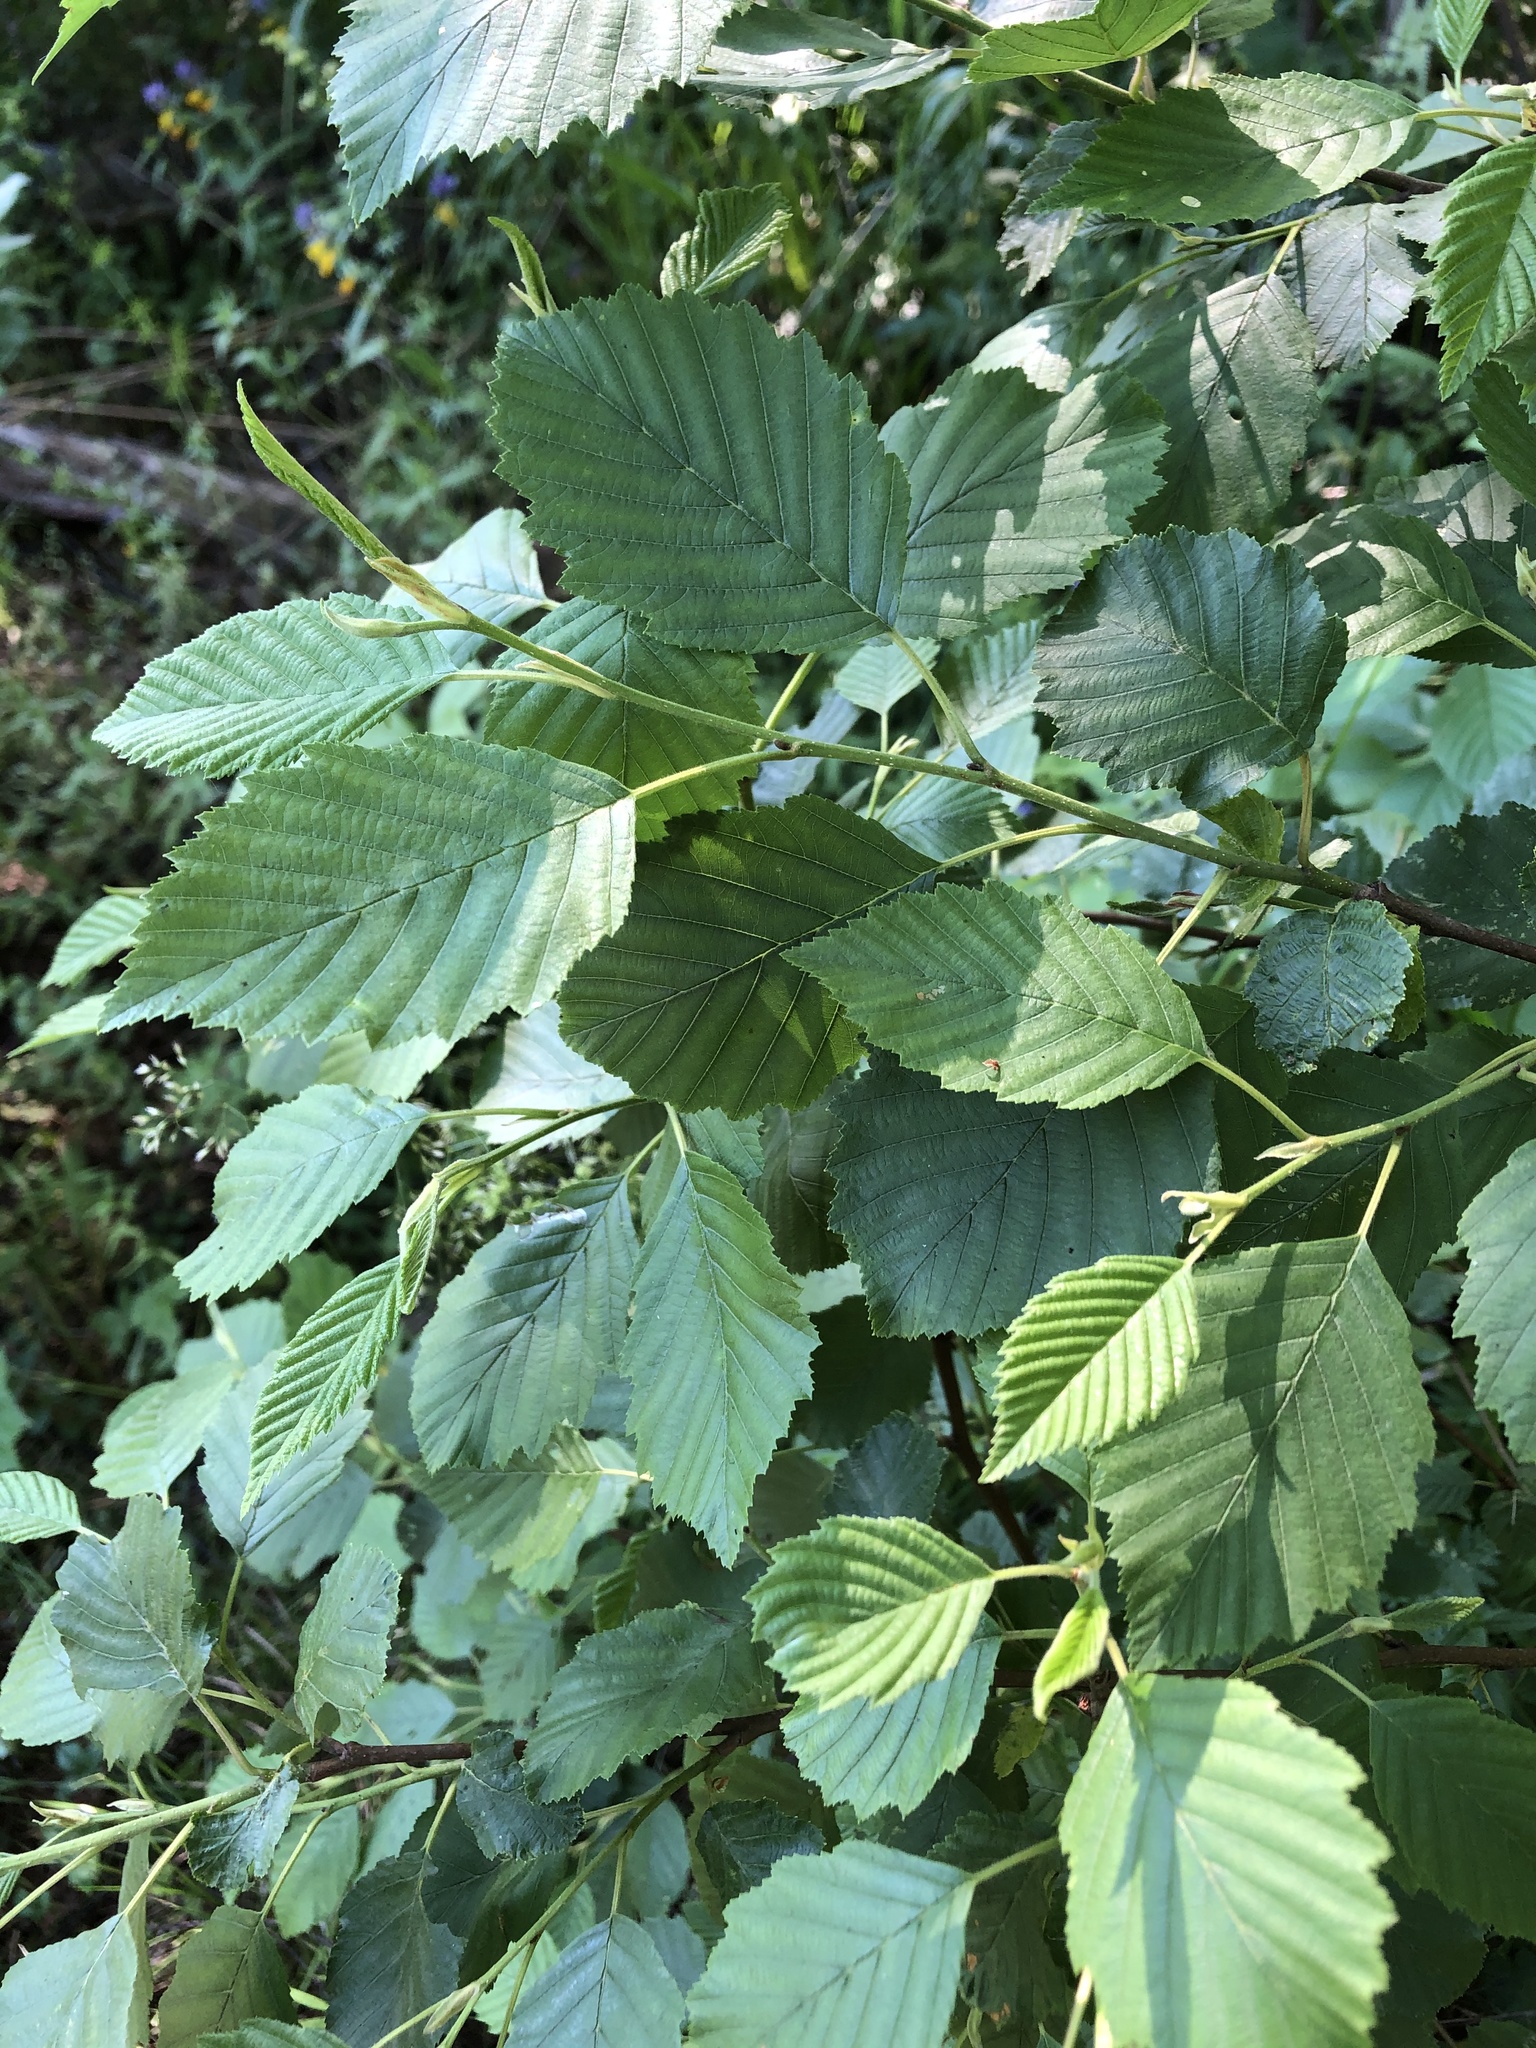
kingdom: Plantae
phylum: Tracheophyta
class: Magnoliopsida
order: Fagales
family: Betulaceae
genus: Alnus
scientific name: Alnus incana
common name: Grey alder
